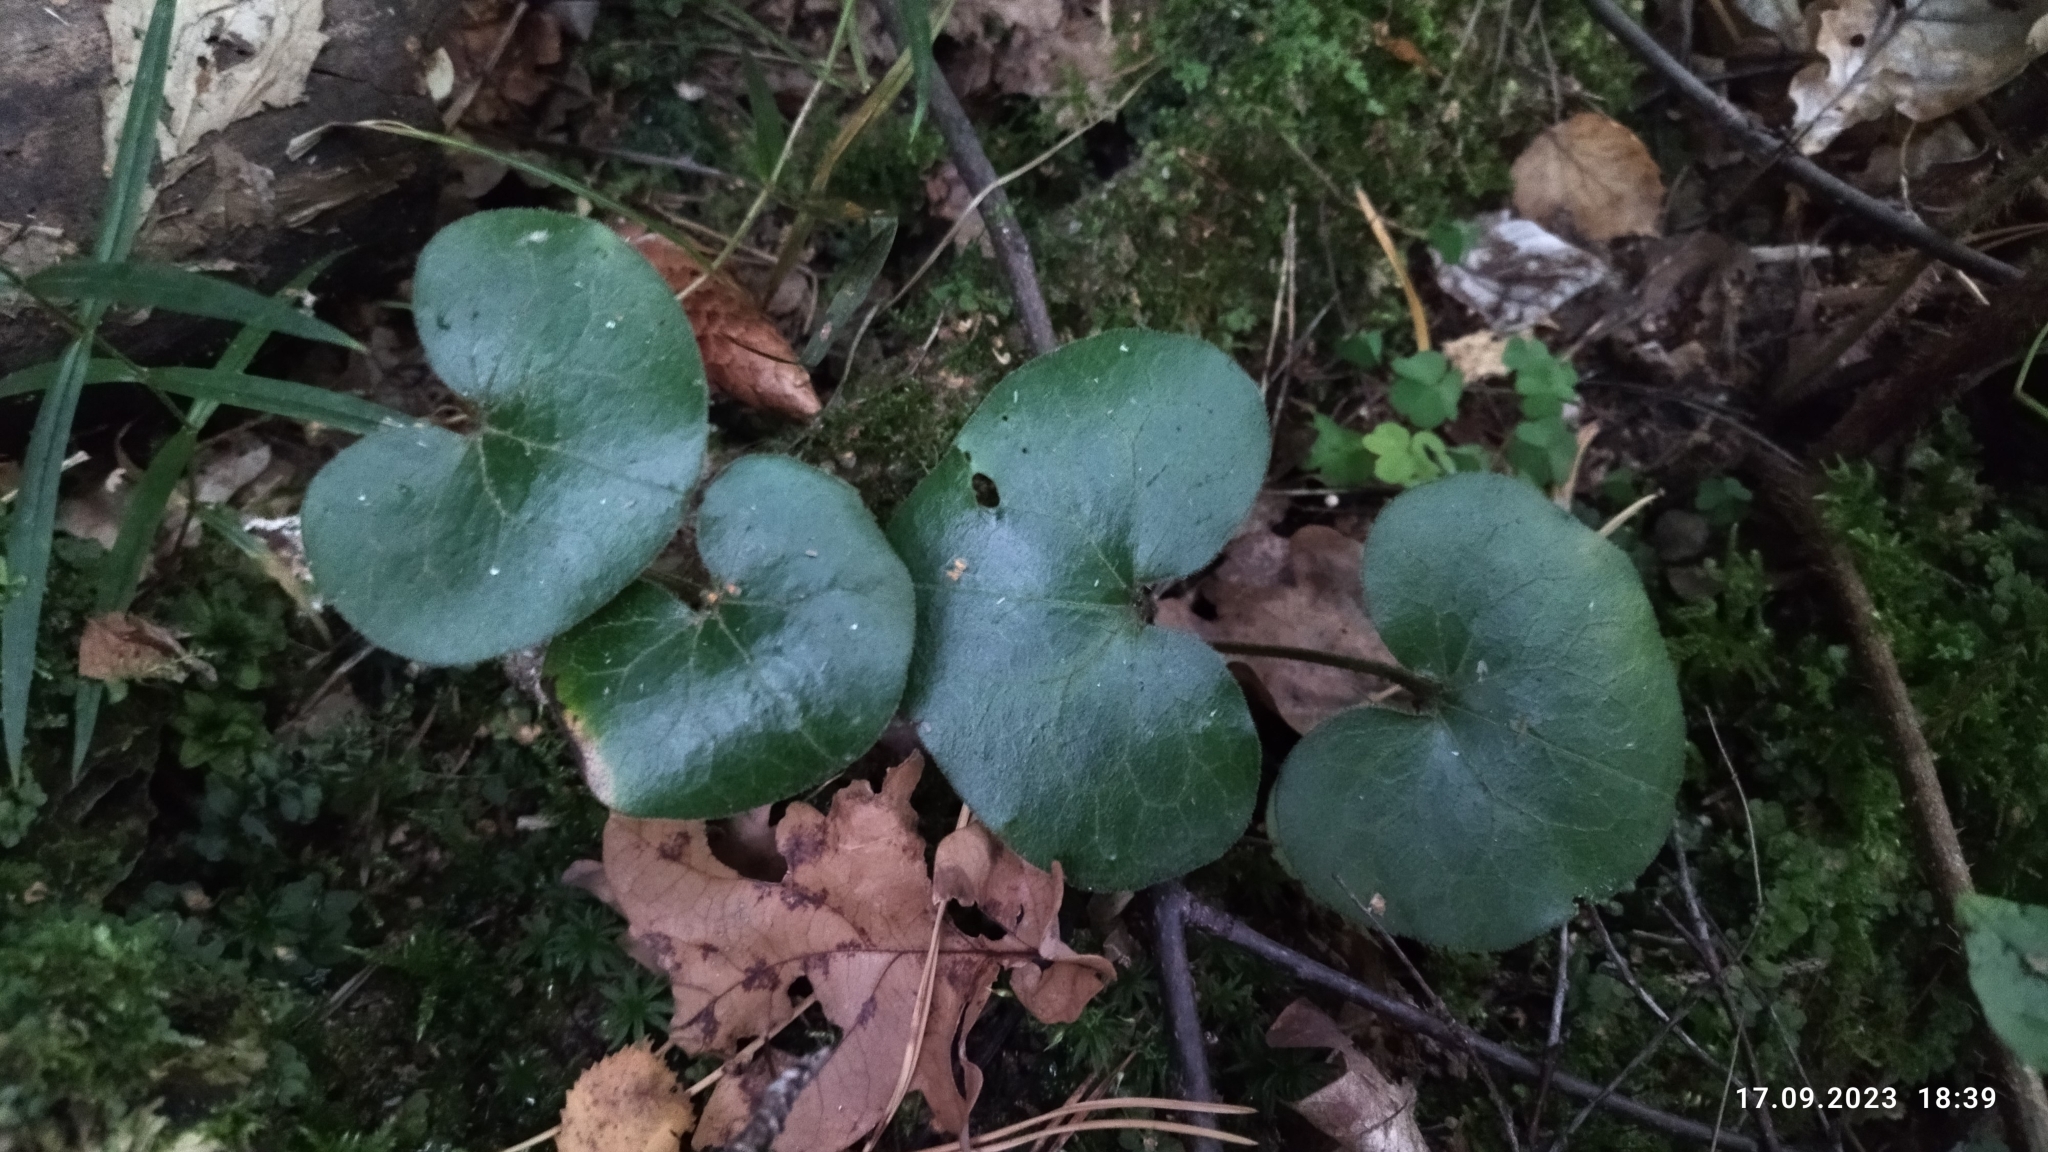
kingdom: Plantae
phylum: Tracheophyta
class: Magnoliopsida
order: Piperales
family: Aristolochiaceae
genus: Asarum
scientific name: Asarum europaeum
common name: Asarabacca
